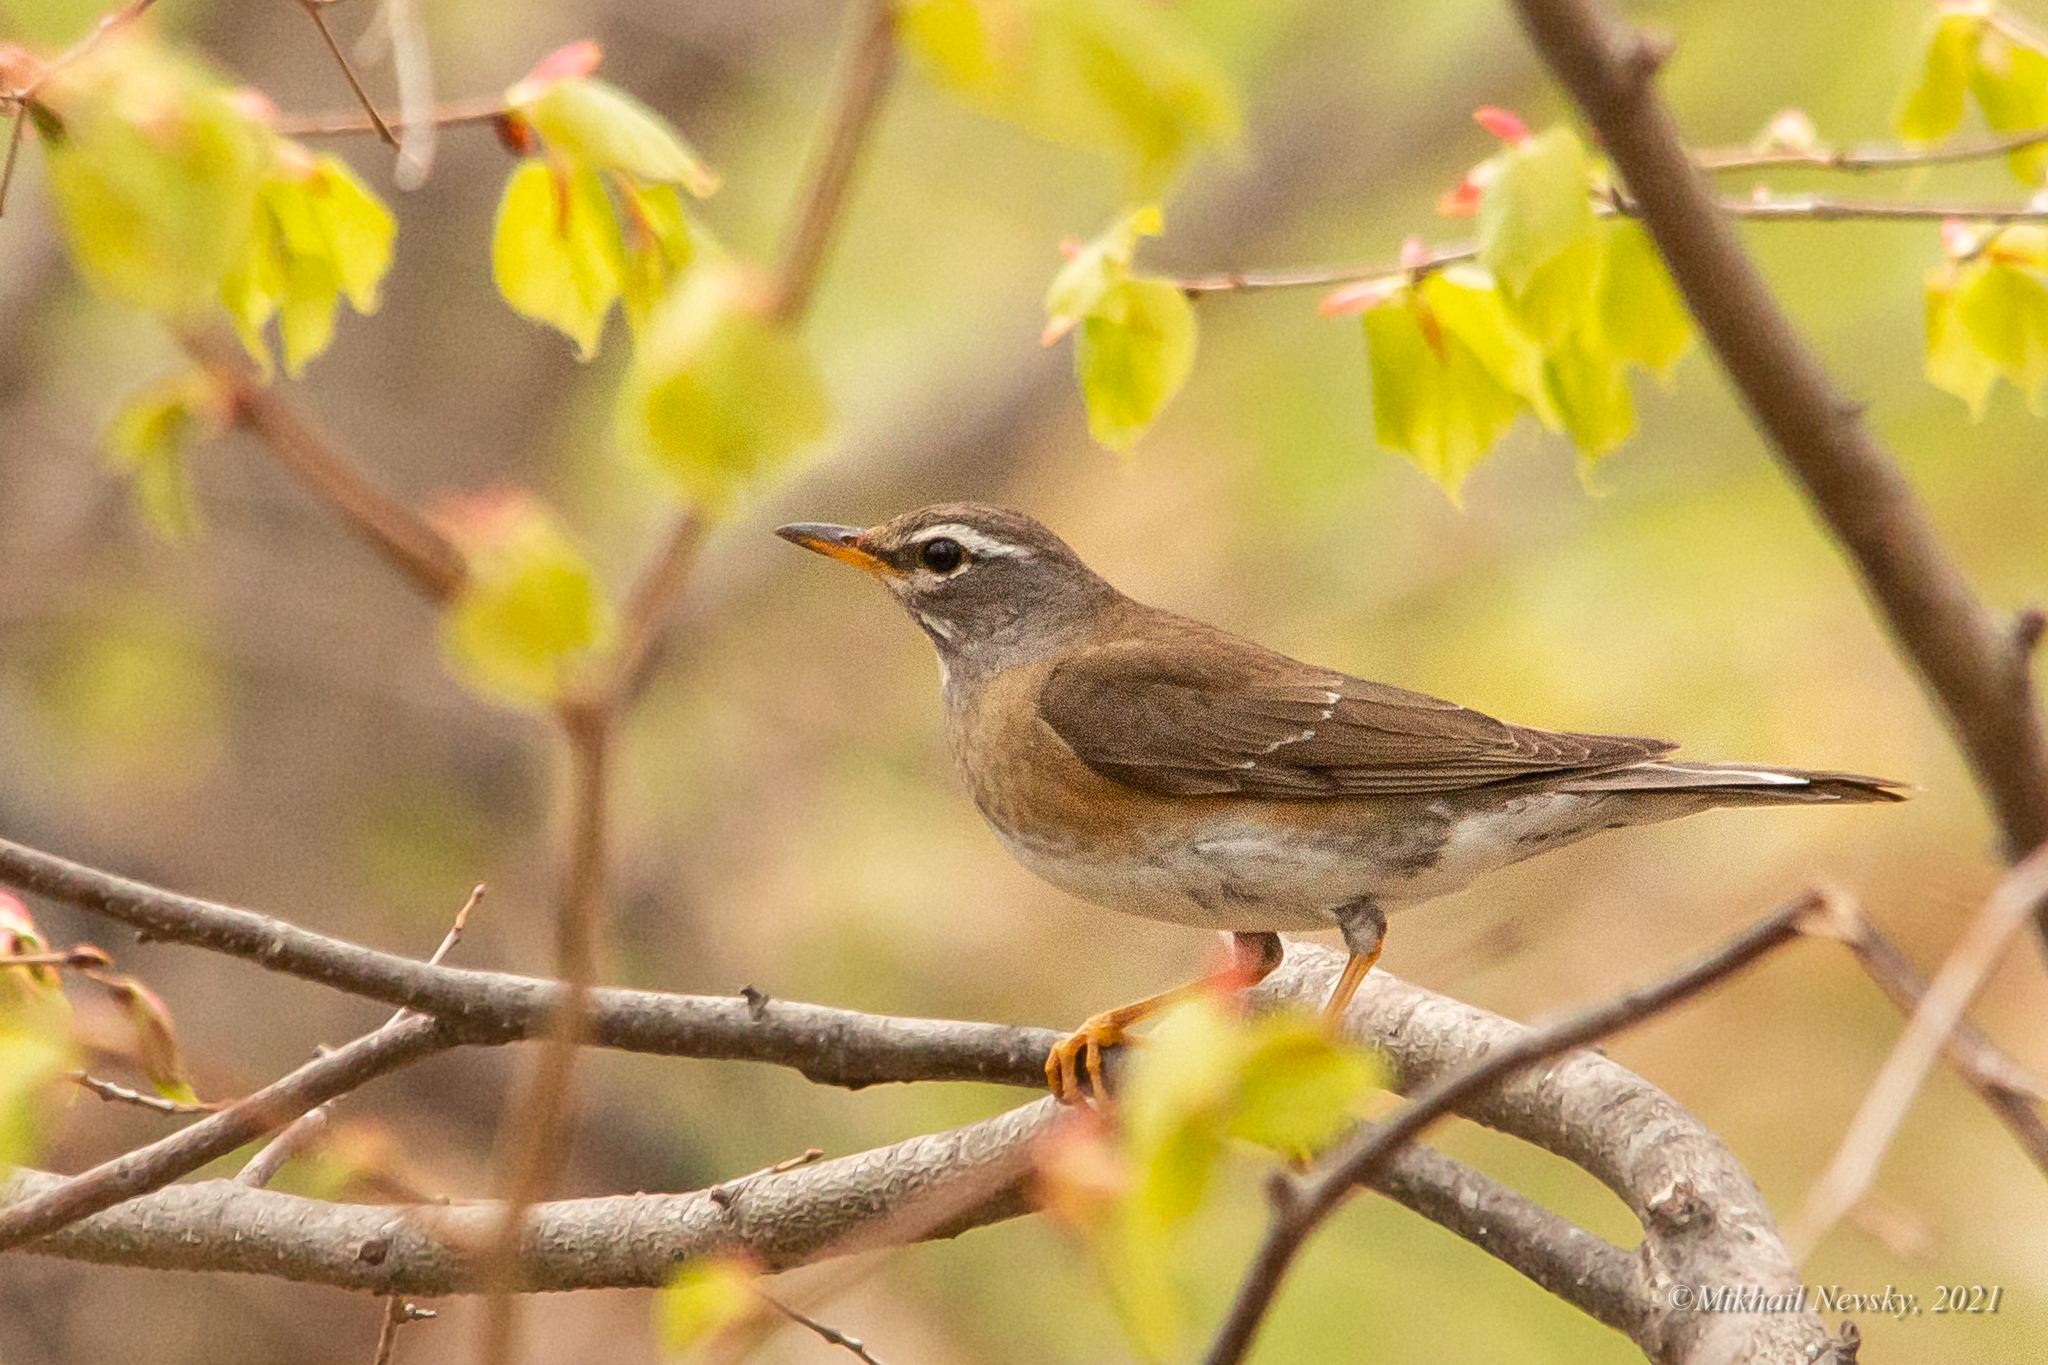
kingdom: Animalia
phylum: Chordata
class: Aves
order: Passeriformes
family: Turdidae
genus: Turdus
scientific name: Turdus obscurus
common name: Eyebrowed thrush
